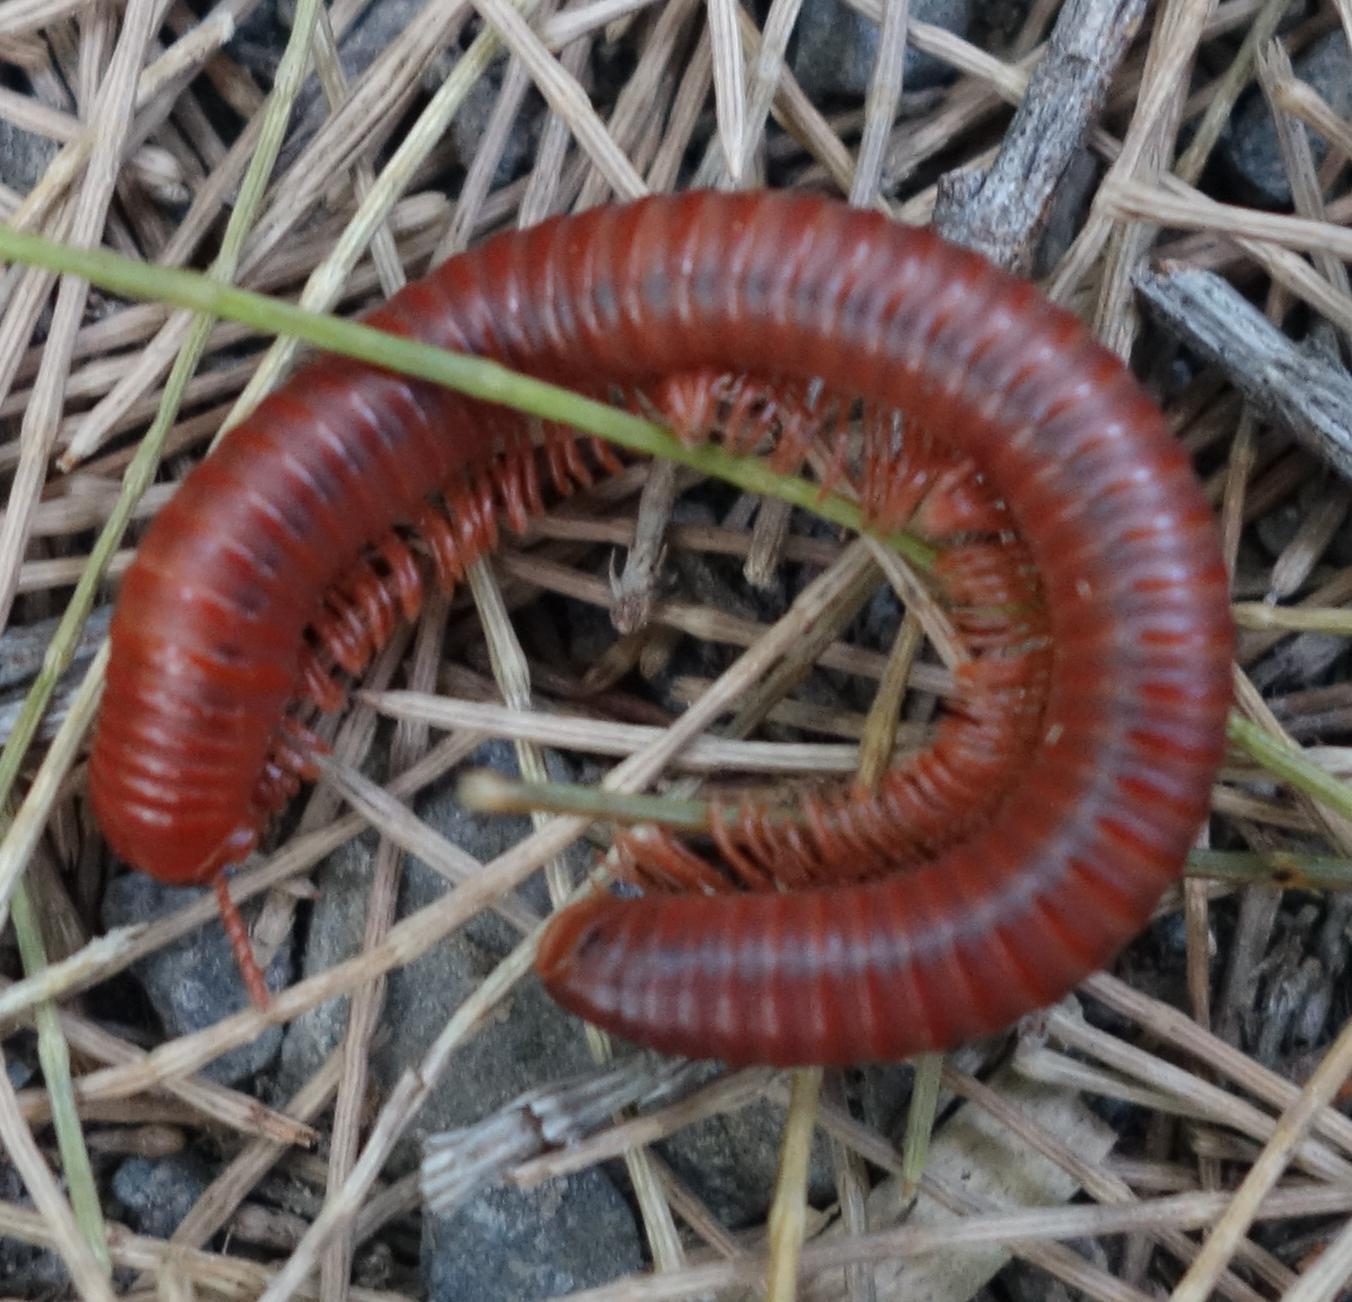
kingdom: Animalia
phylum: Arthropoda
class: Diplopoda
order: Spirobolida
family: Pachybolidae
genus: Trigoniulus
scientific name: Trigoniulus corallinus
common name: Millipede
